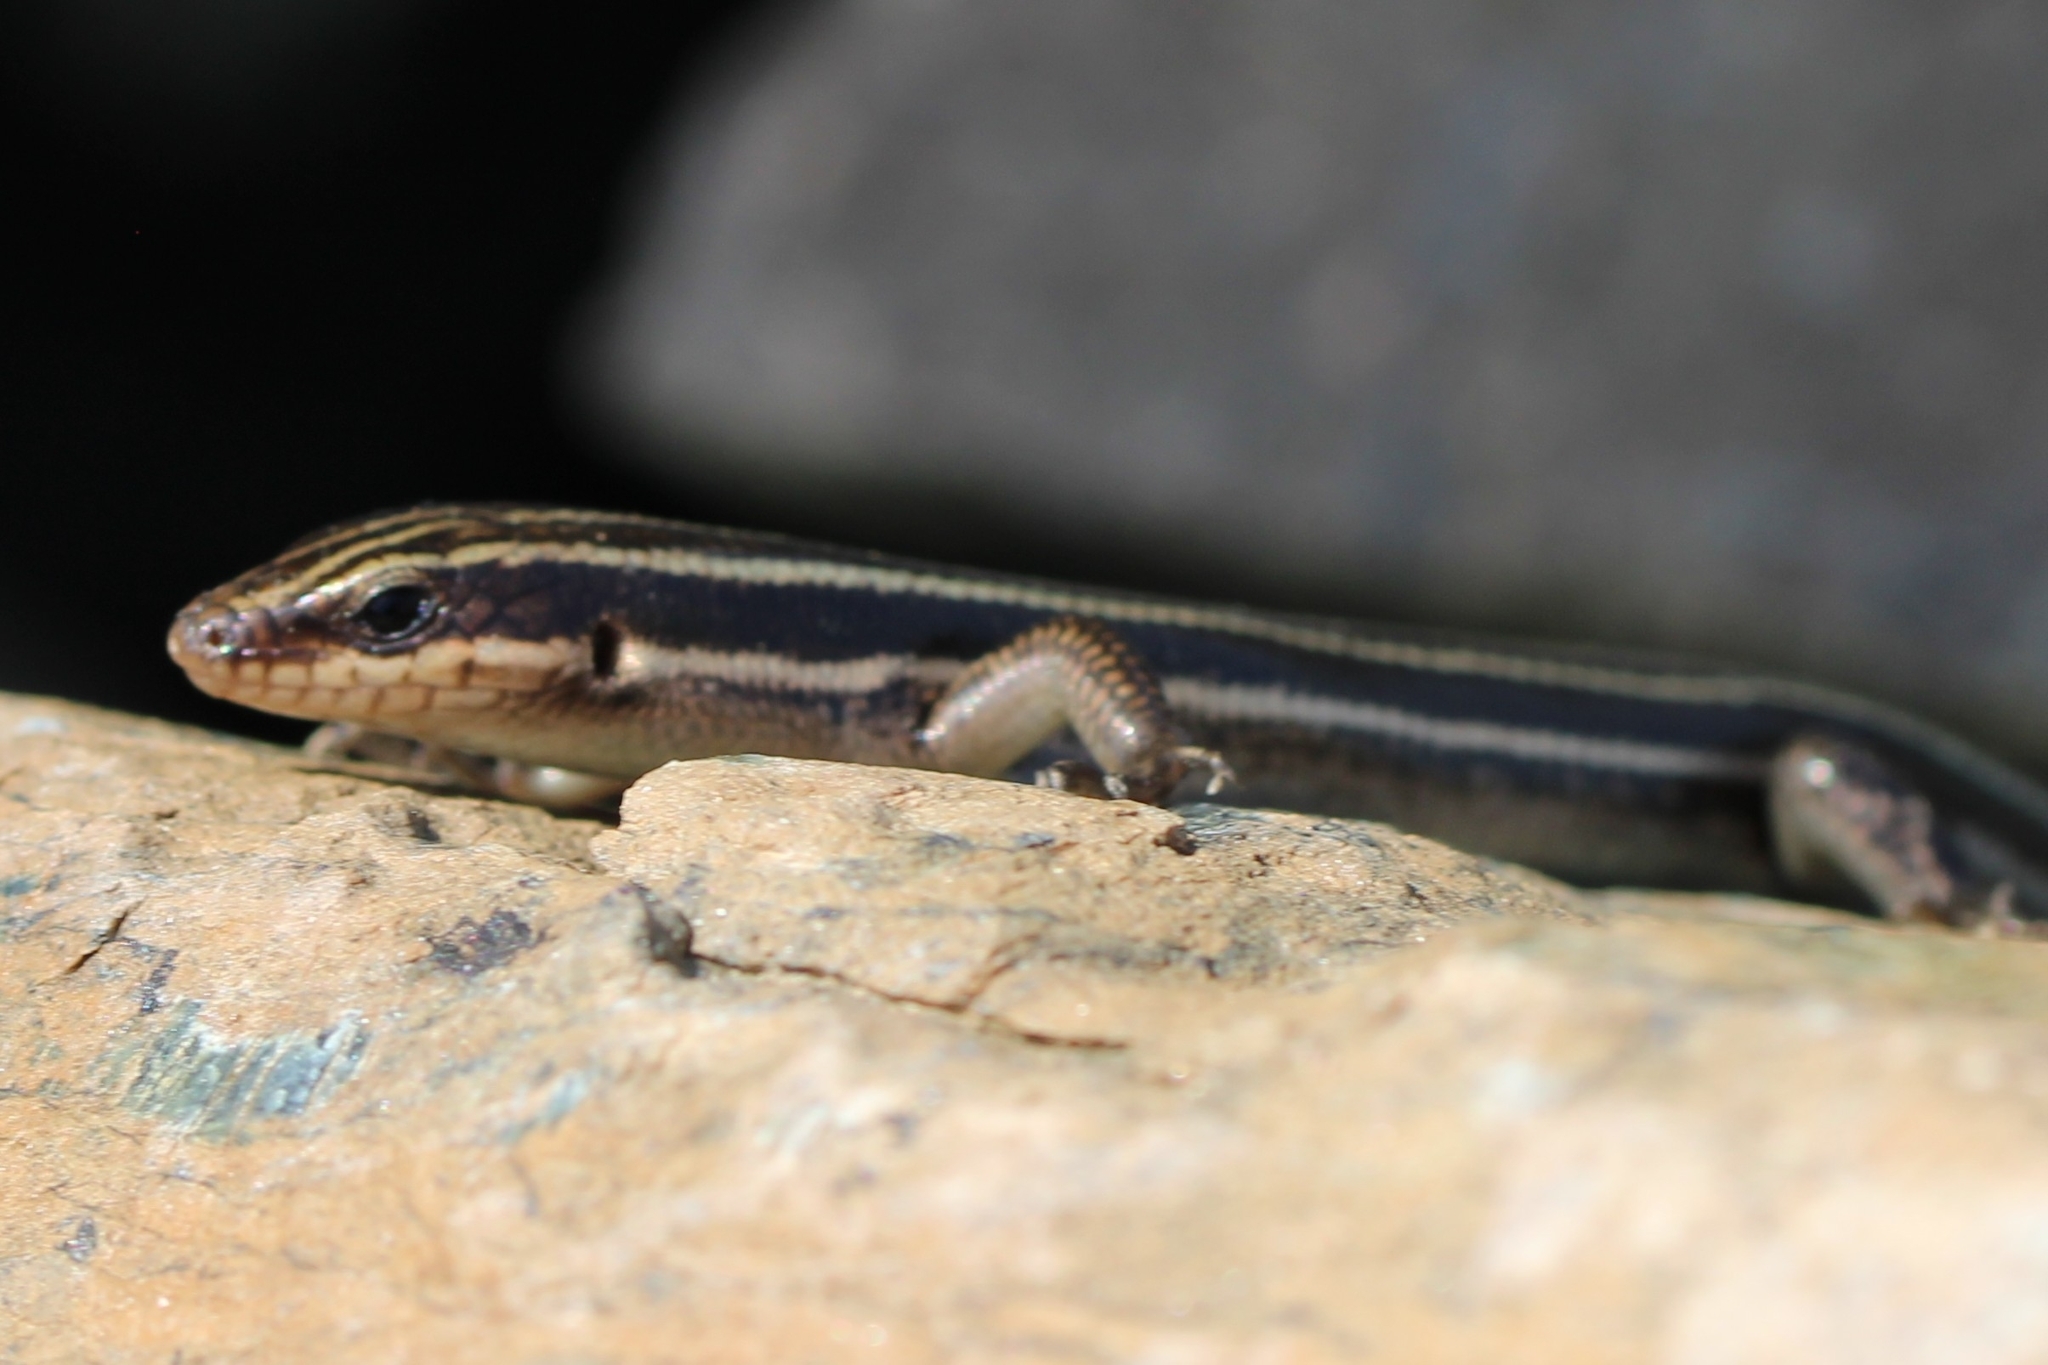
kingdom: Animalia
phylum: Chordata
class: Squamata
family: Scincidae
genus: Plestiodon
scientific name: Plestiodon fasciatus
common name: Five-lined skink
